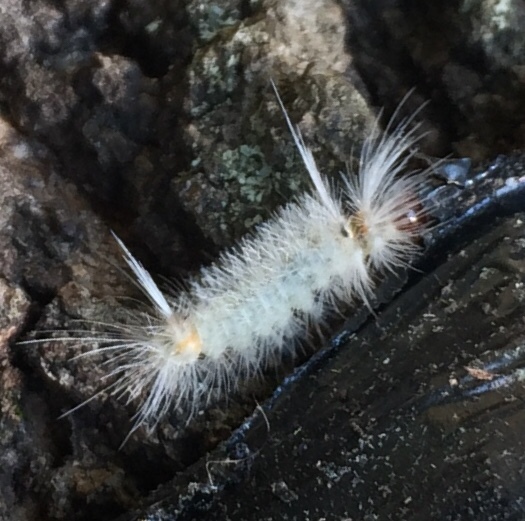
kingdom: Animalia
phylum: Arthropoda
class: Insecta
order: Lepidoptera
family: Erebidae
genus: Halysidota
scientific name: Halysidota tessellaris
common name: Banded tussock moth
